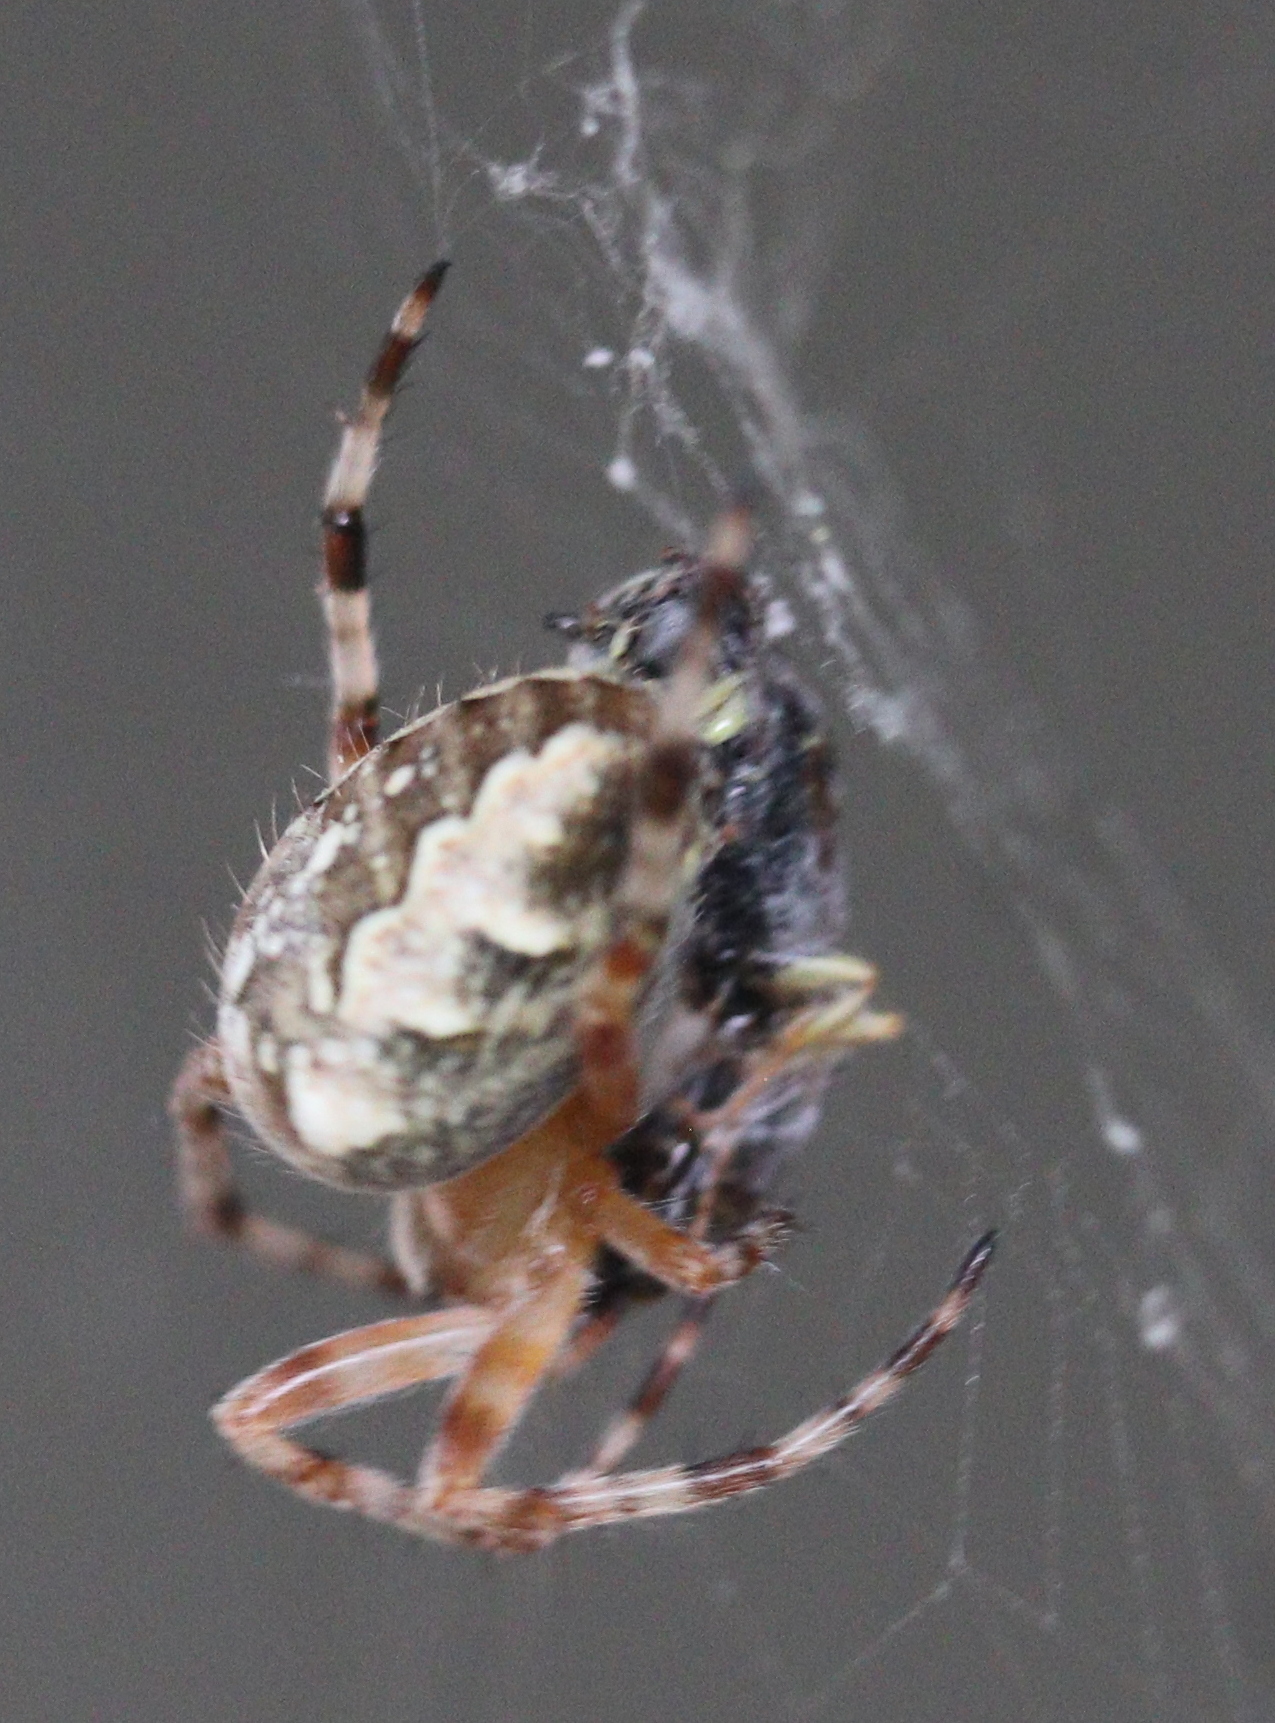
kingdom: Animalia
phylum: Arthropoda
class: Arachnida
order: Araneae
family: Araneidae
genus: Araneus
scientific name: Araneus diadematus
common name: Cross orbweaver
